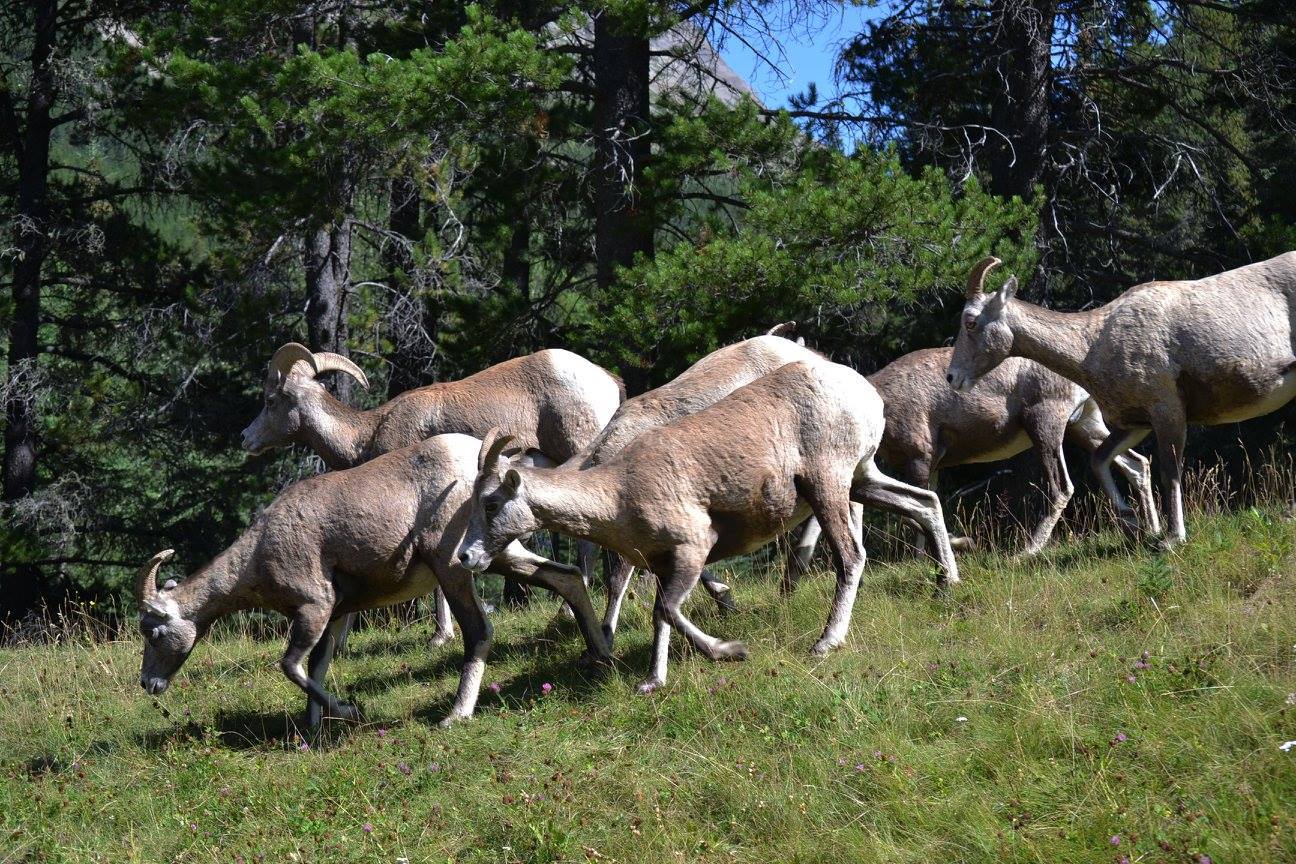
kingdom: Animalia
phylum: Chordata
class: Mammalia
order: Artiodactyla
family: Bovidae
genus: Ovis
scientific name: Ovis canadensis
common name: Bighorn sheep
